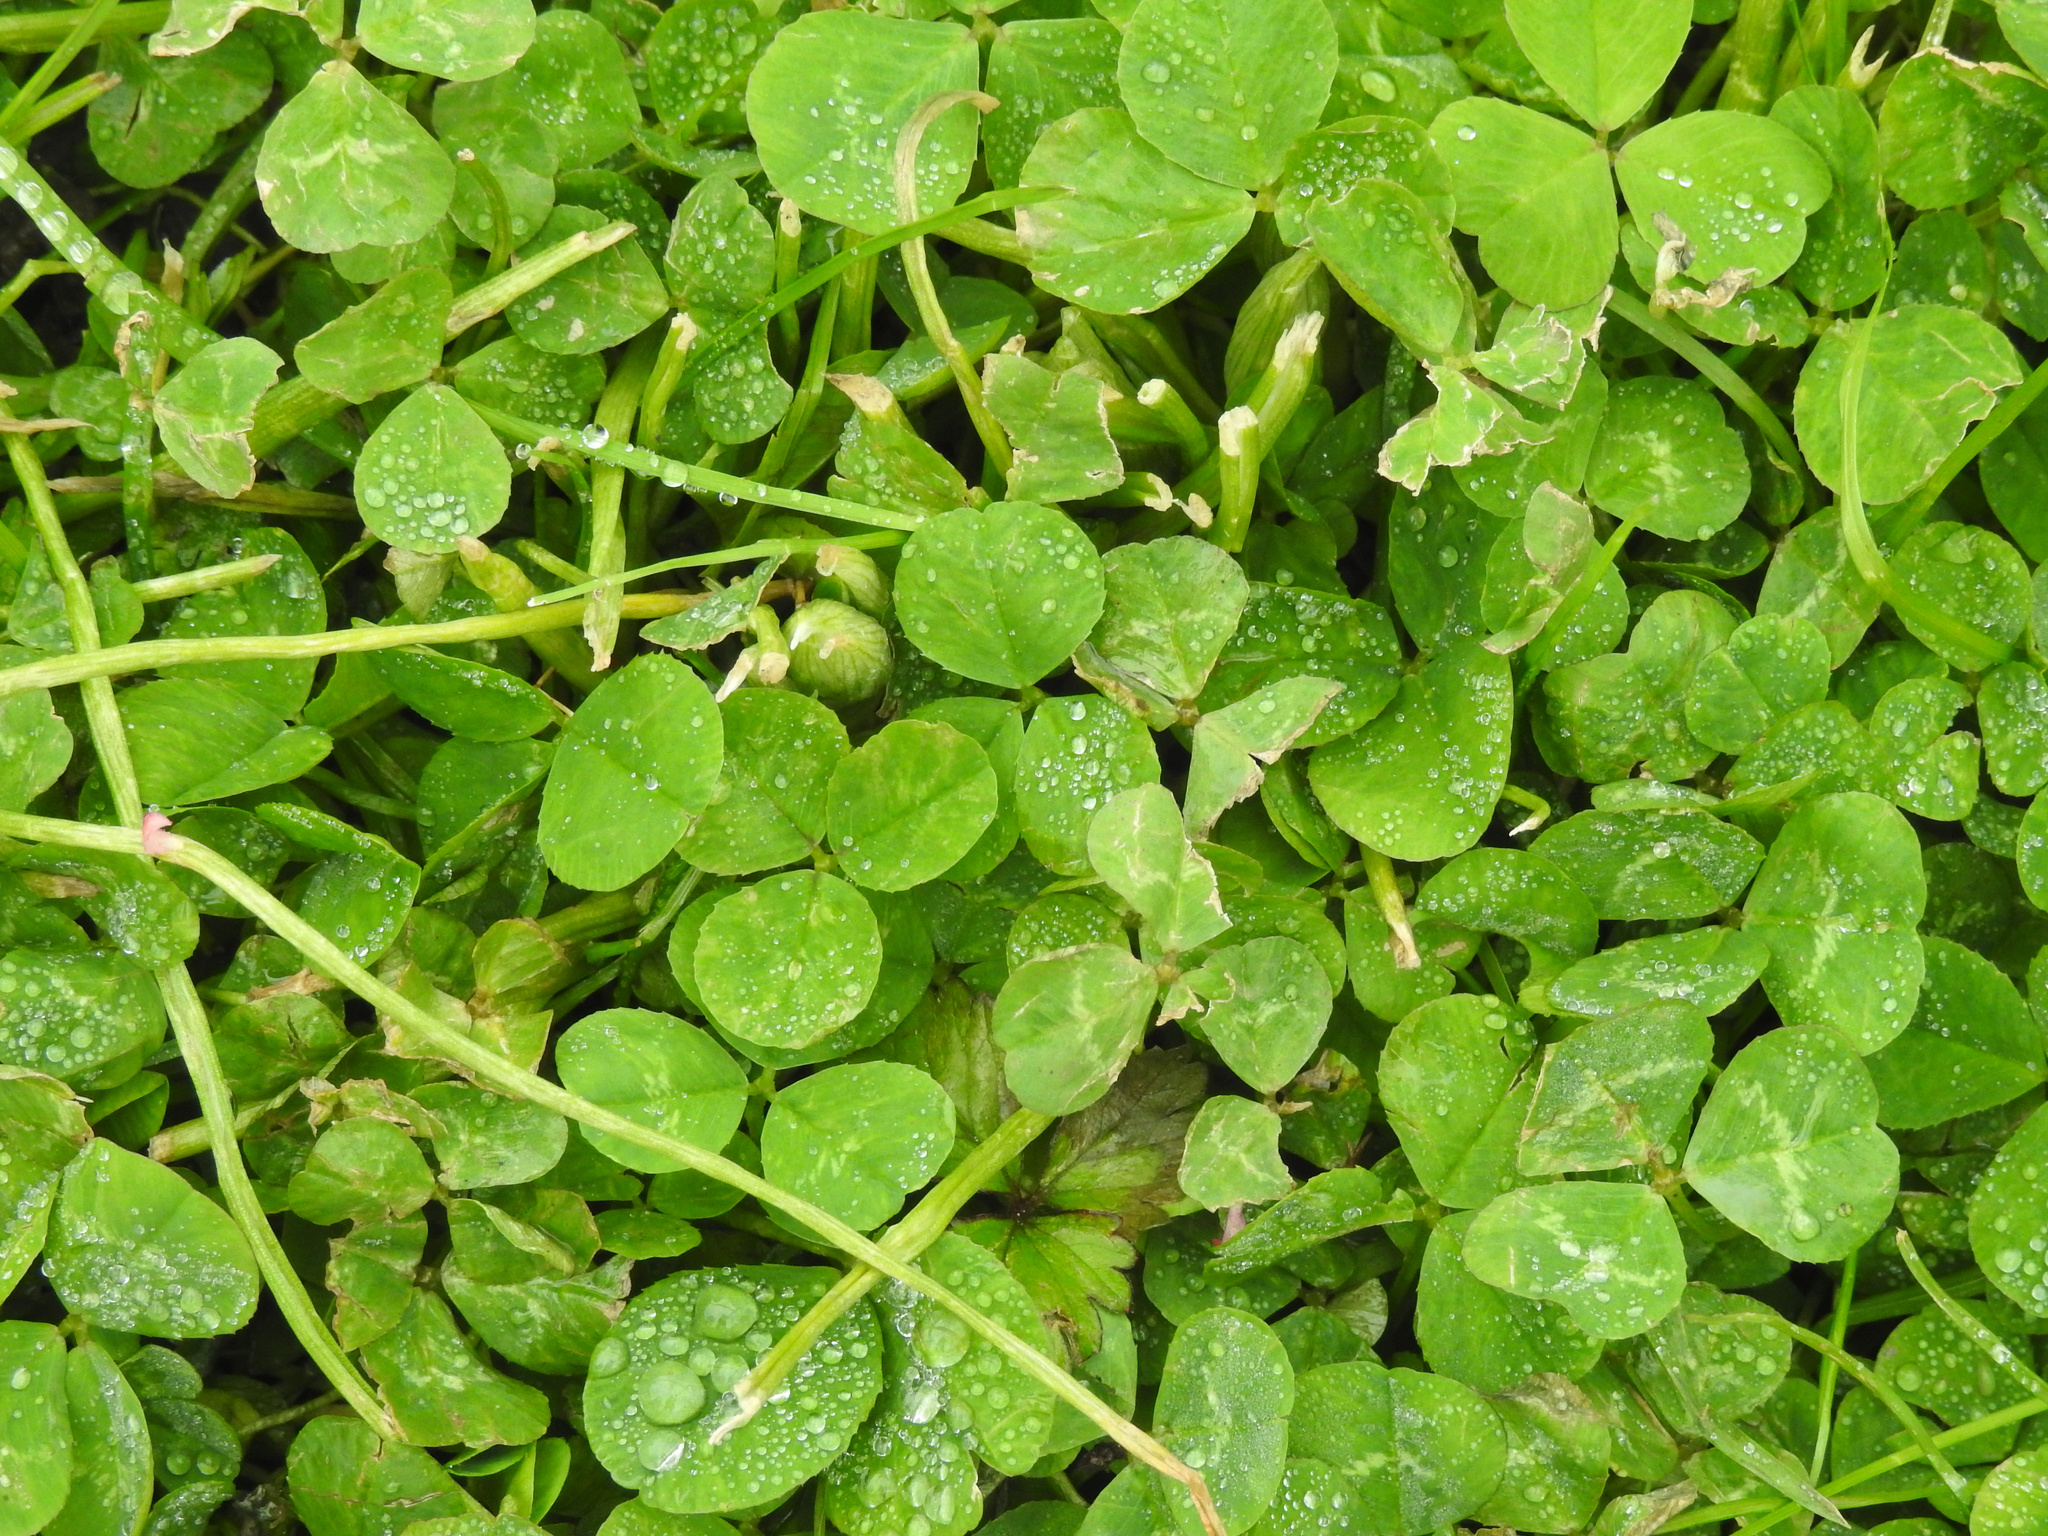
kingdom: Plantae
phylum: Tracheophyta
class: Magnoliopsida
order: Fabales
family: Fabaceae
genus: Trifolium
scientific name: Trifolium repens
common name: White clover
